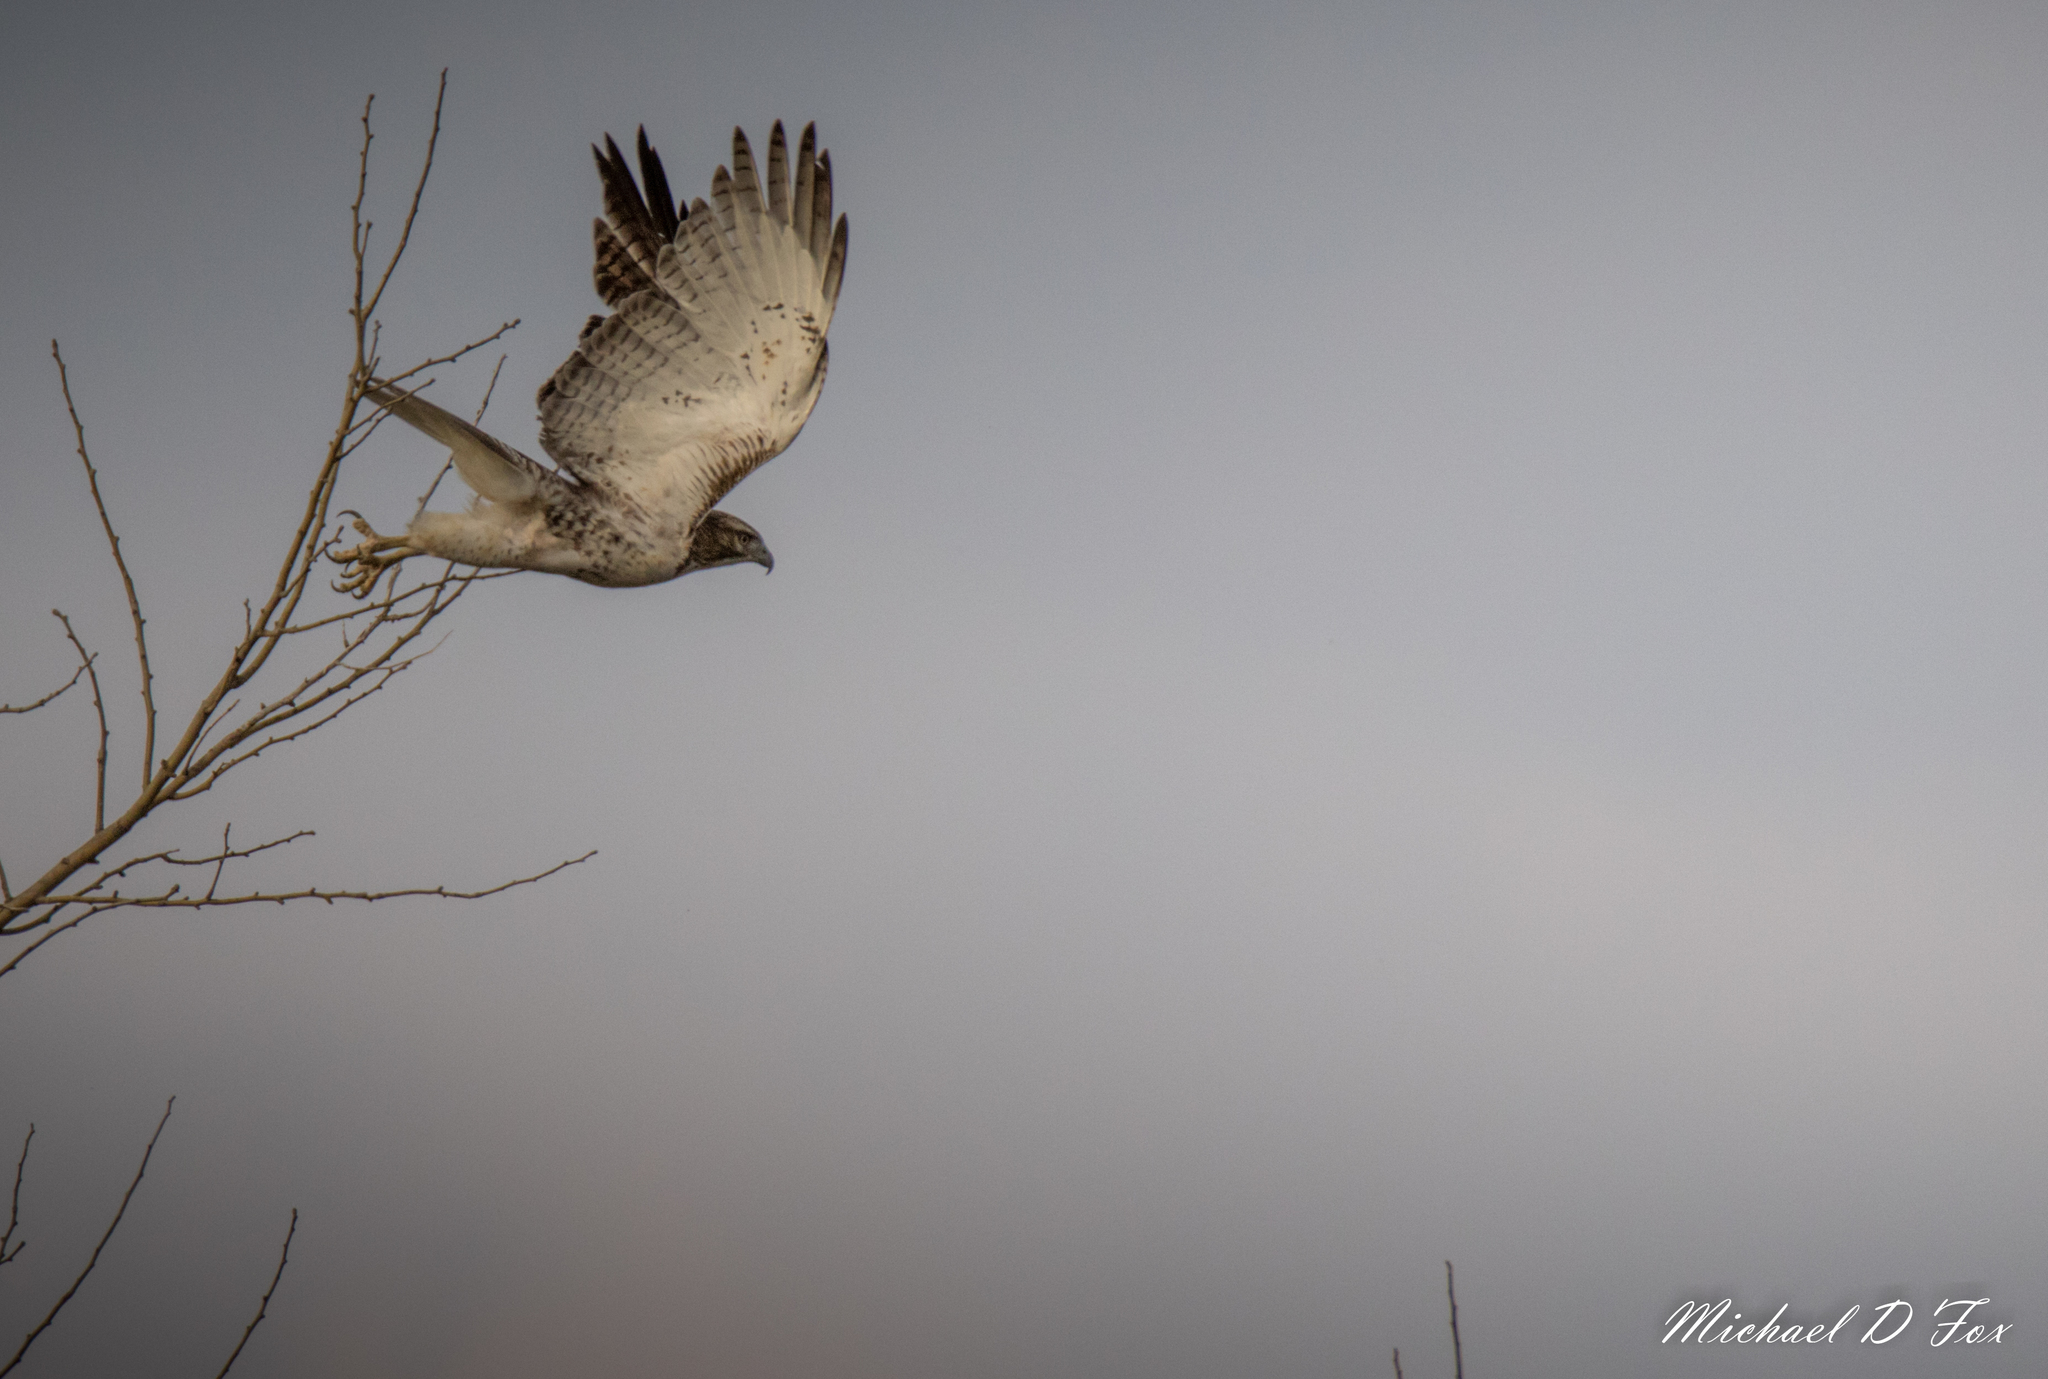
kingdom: Animalia
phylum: Chordata
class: Aves
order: Accipitriformes
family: Accipitridae
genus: Buteo
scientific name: Buteo jamaicensis
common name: Red-tailed hawk
